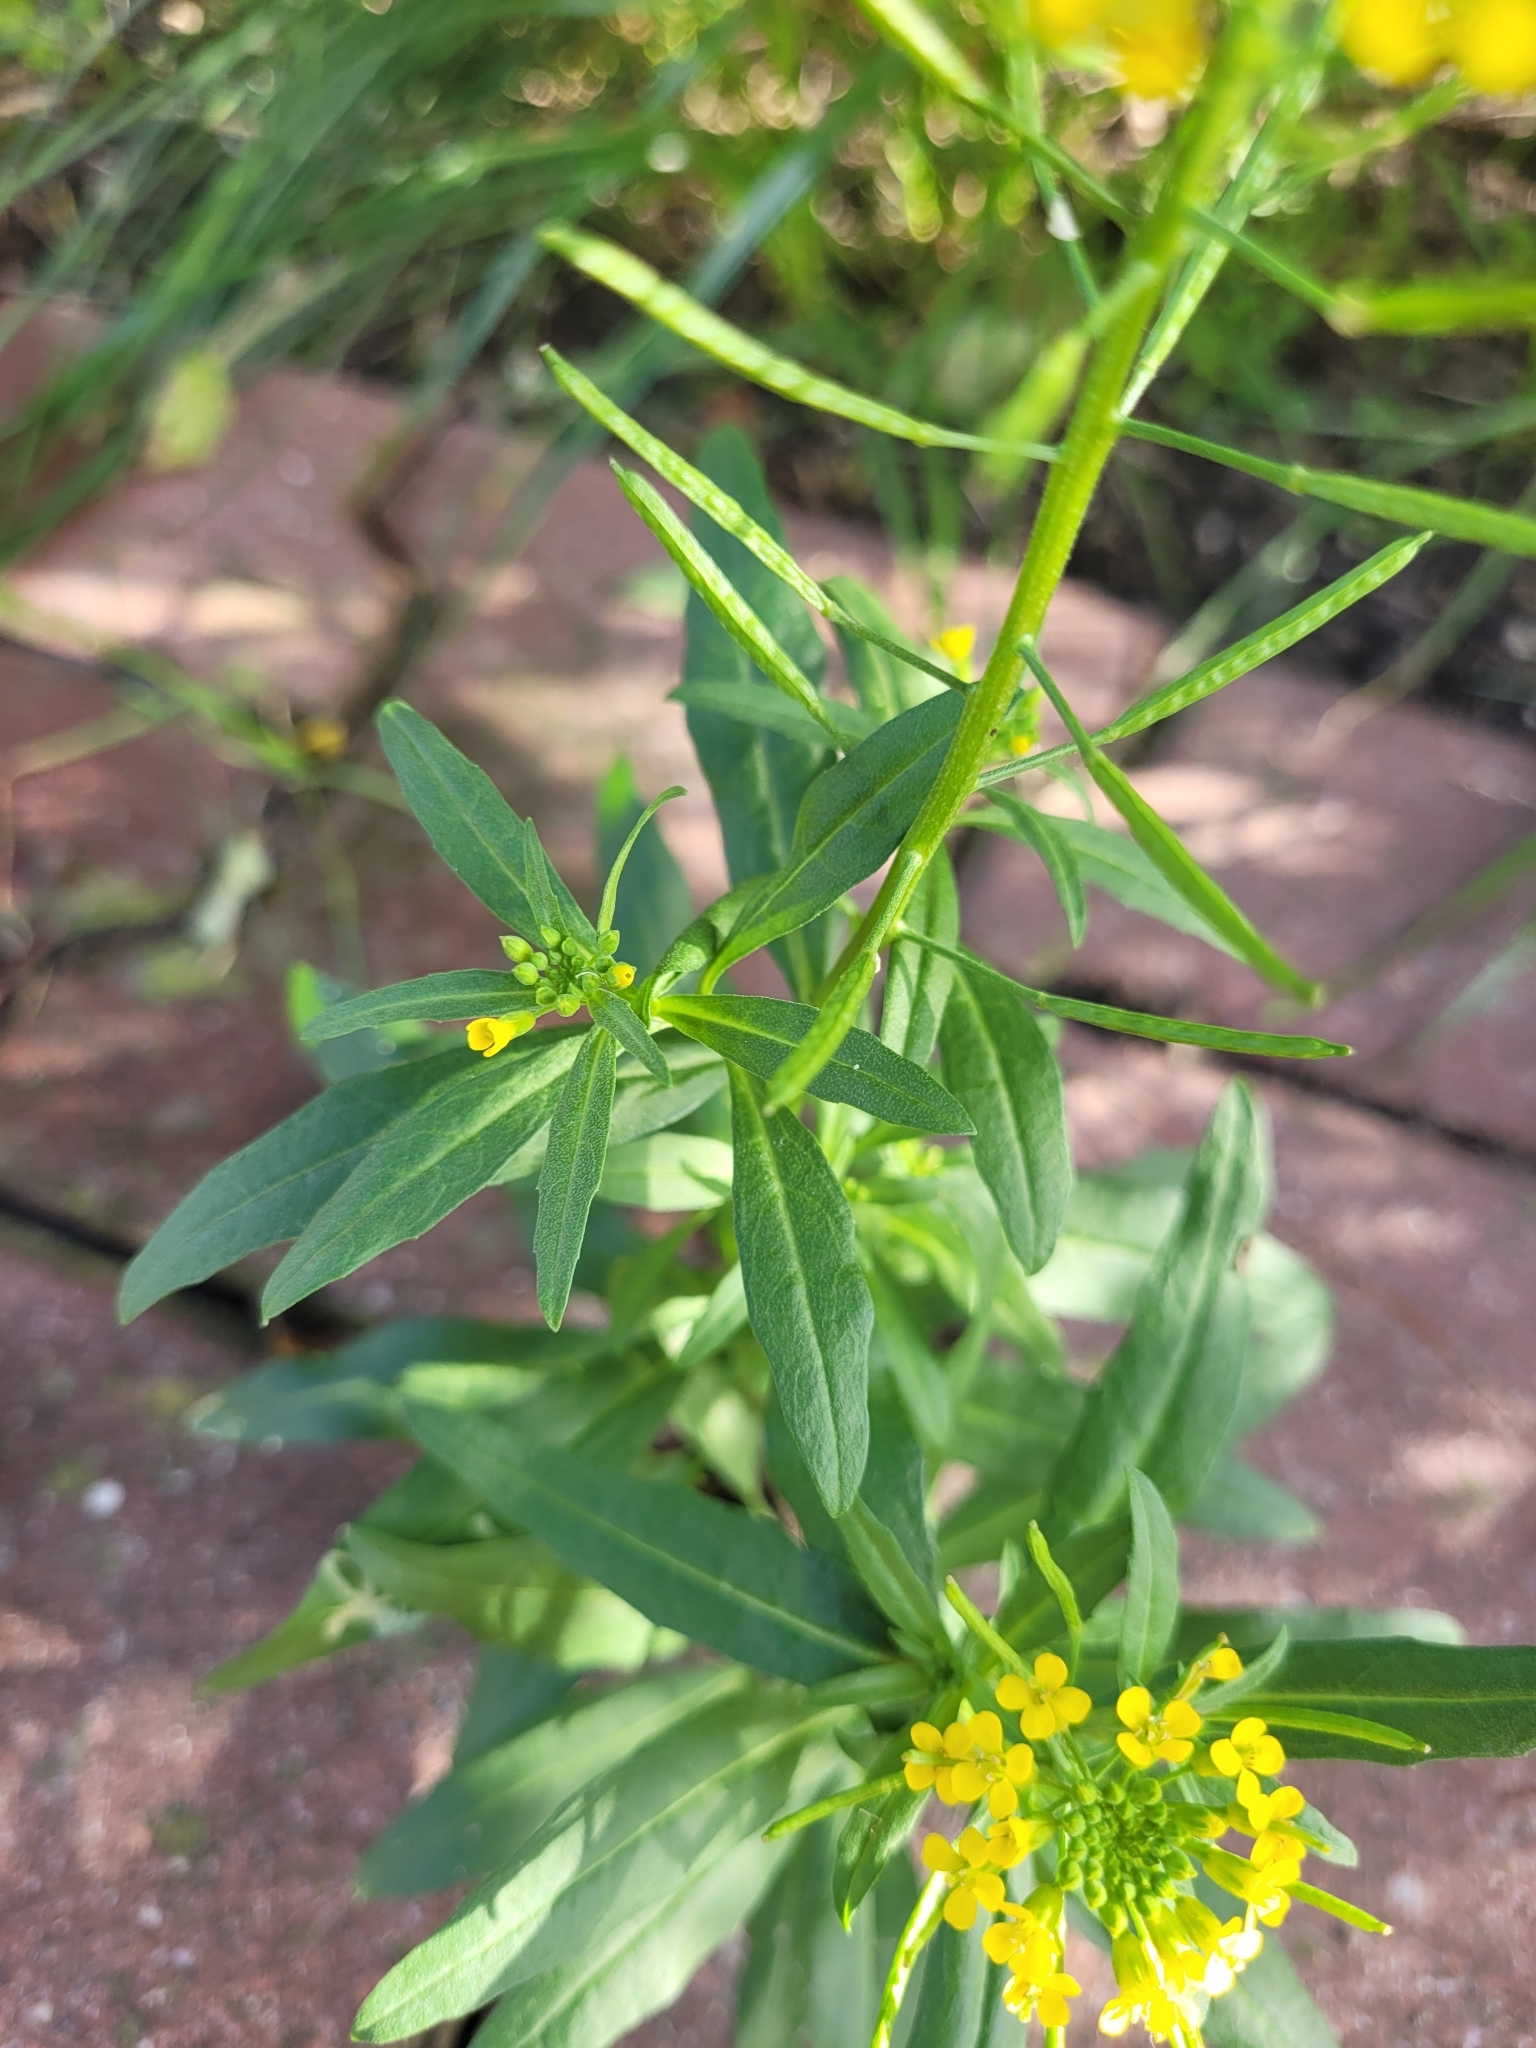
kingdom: Plantae
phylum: Tracheophyta
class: Magnoliopsida
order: Brassicales
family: Brassicaceae
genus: Erysimum
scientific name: Erysimum cheiranthoides
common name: Treacle mustard
